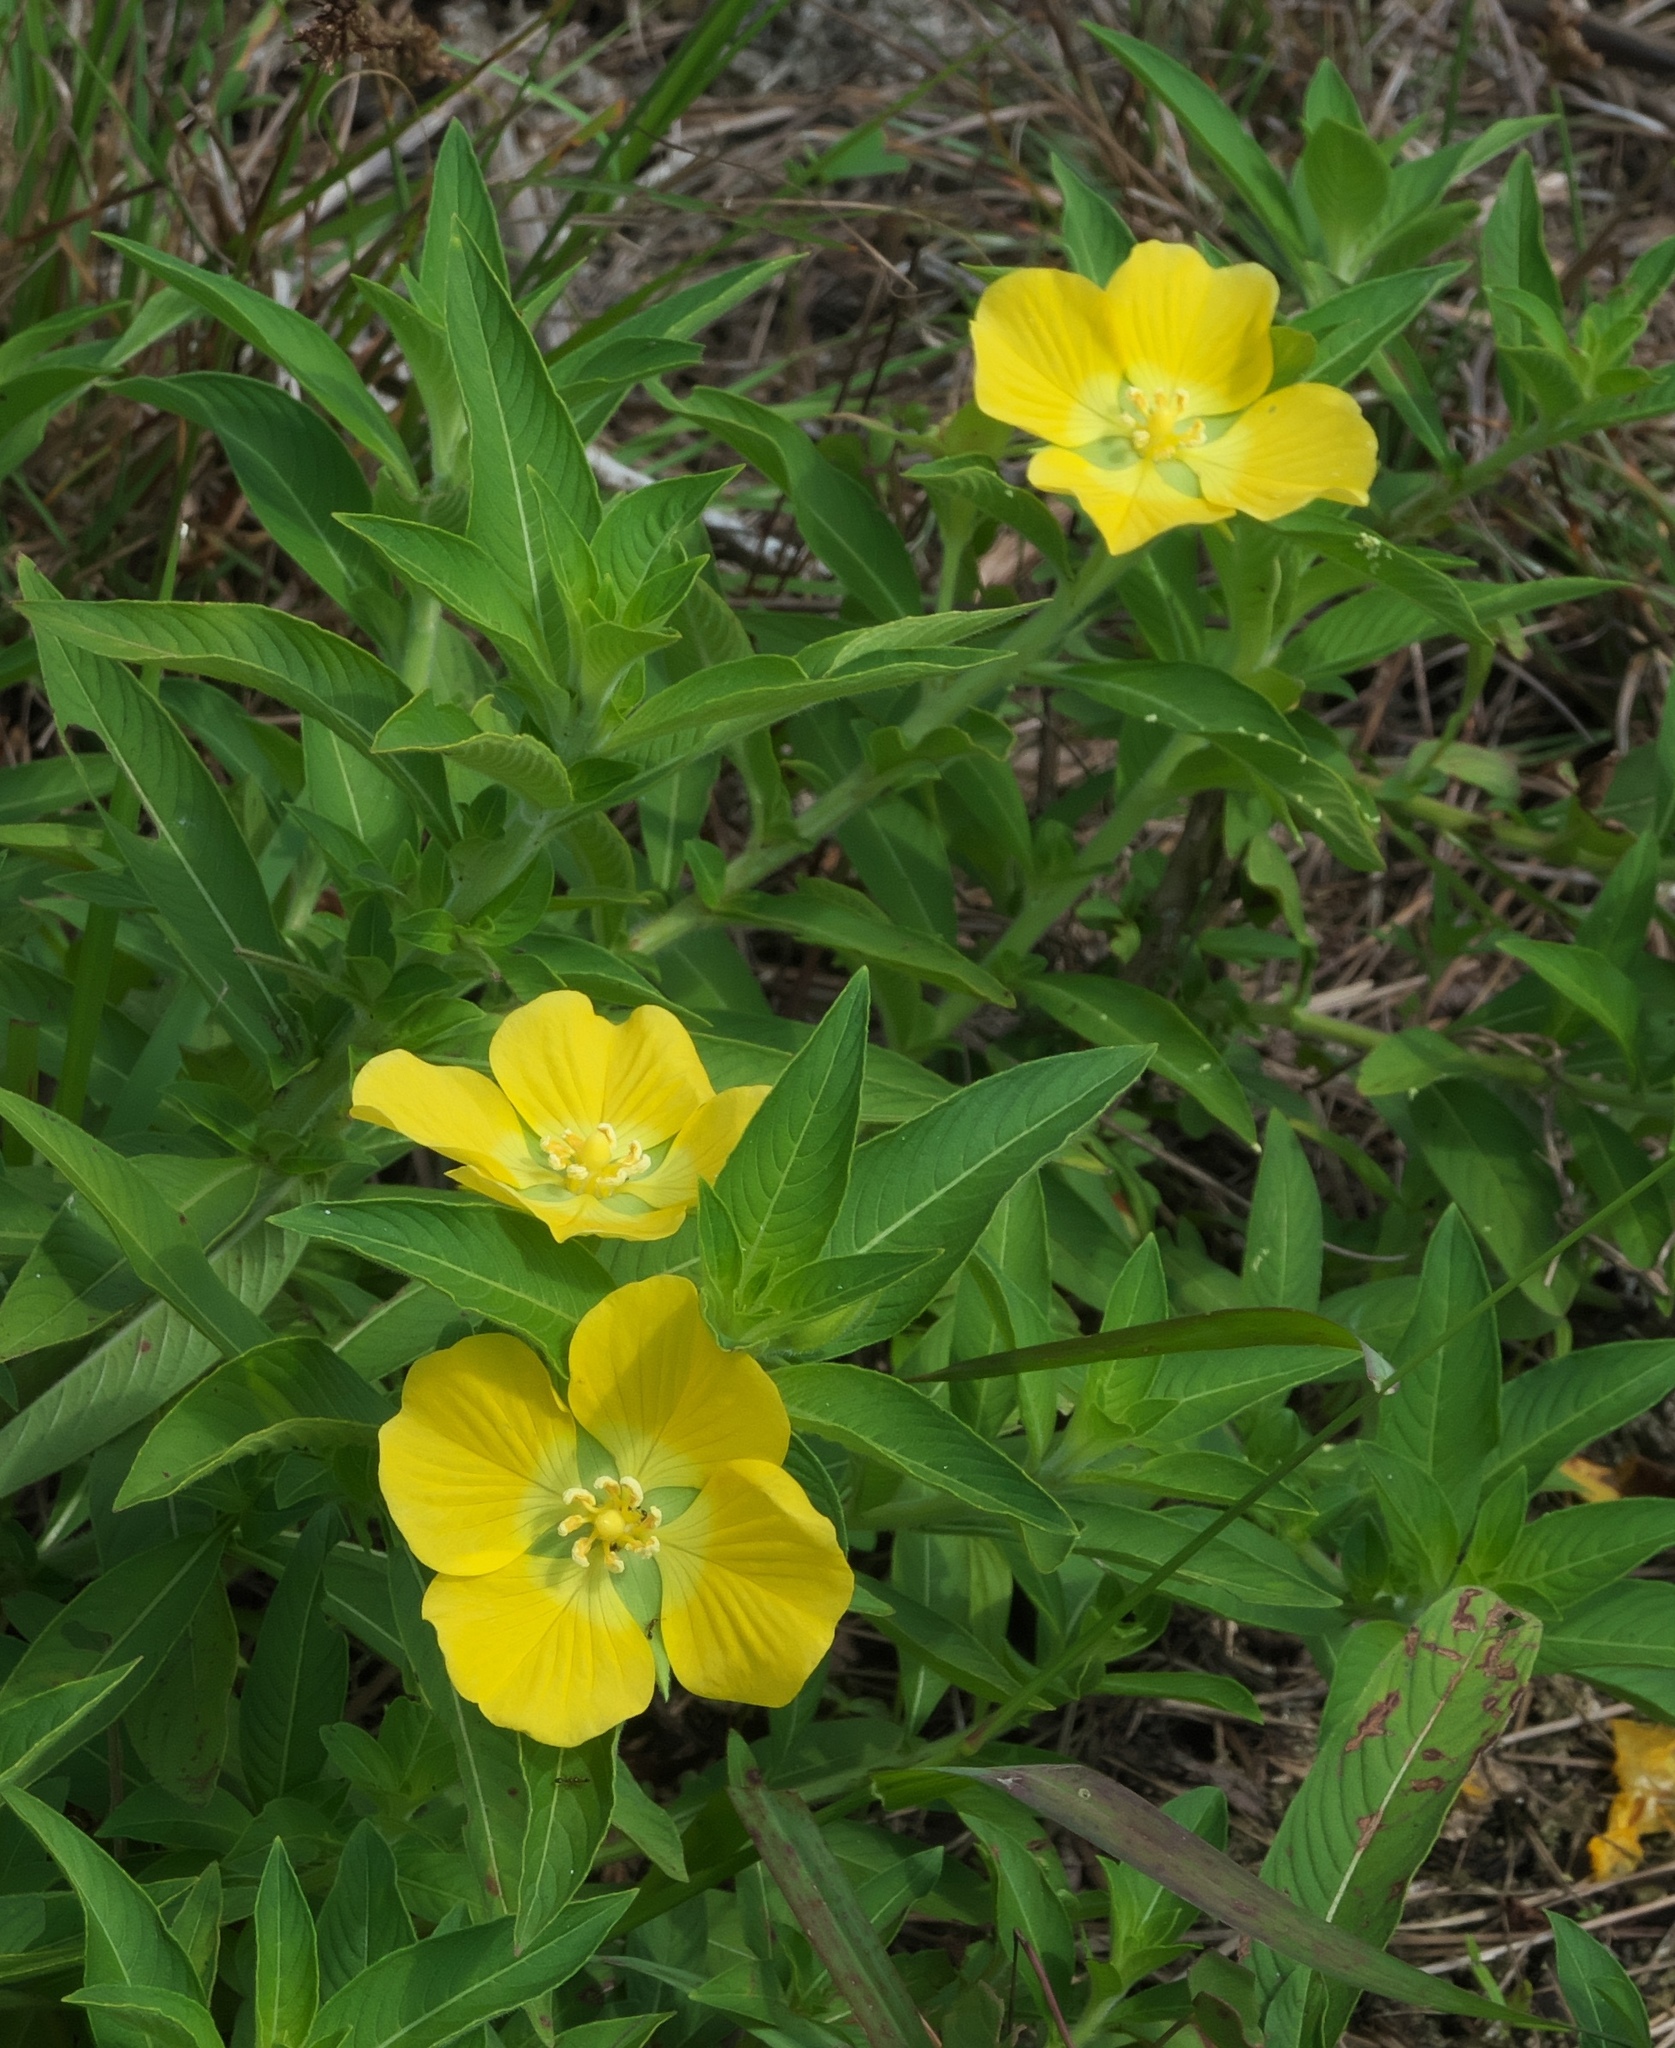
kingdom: Plantae
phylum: Tracheophyta
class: Magnoliopsida
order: Myrtales
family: Onagraceae
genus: Ludwigia
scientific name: Ludwigia peruviana
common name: Peruvian primrose-willow
